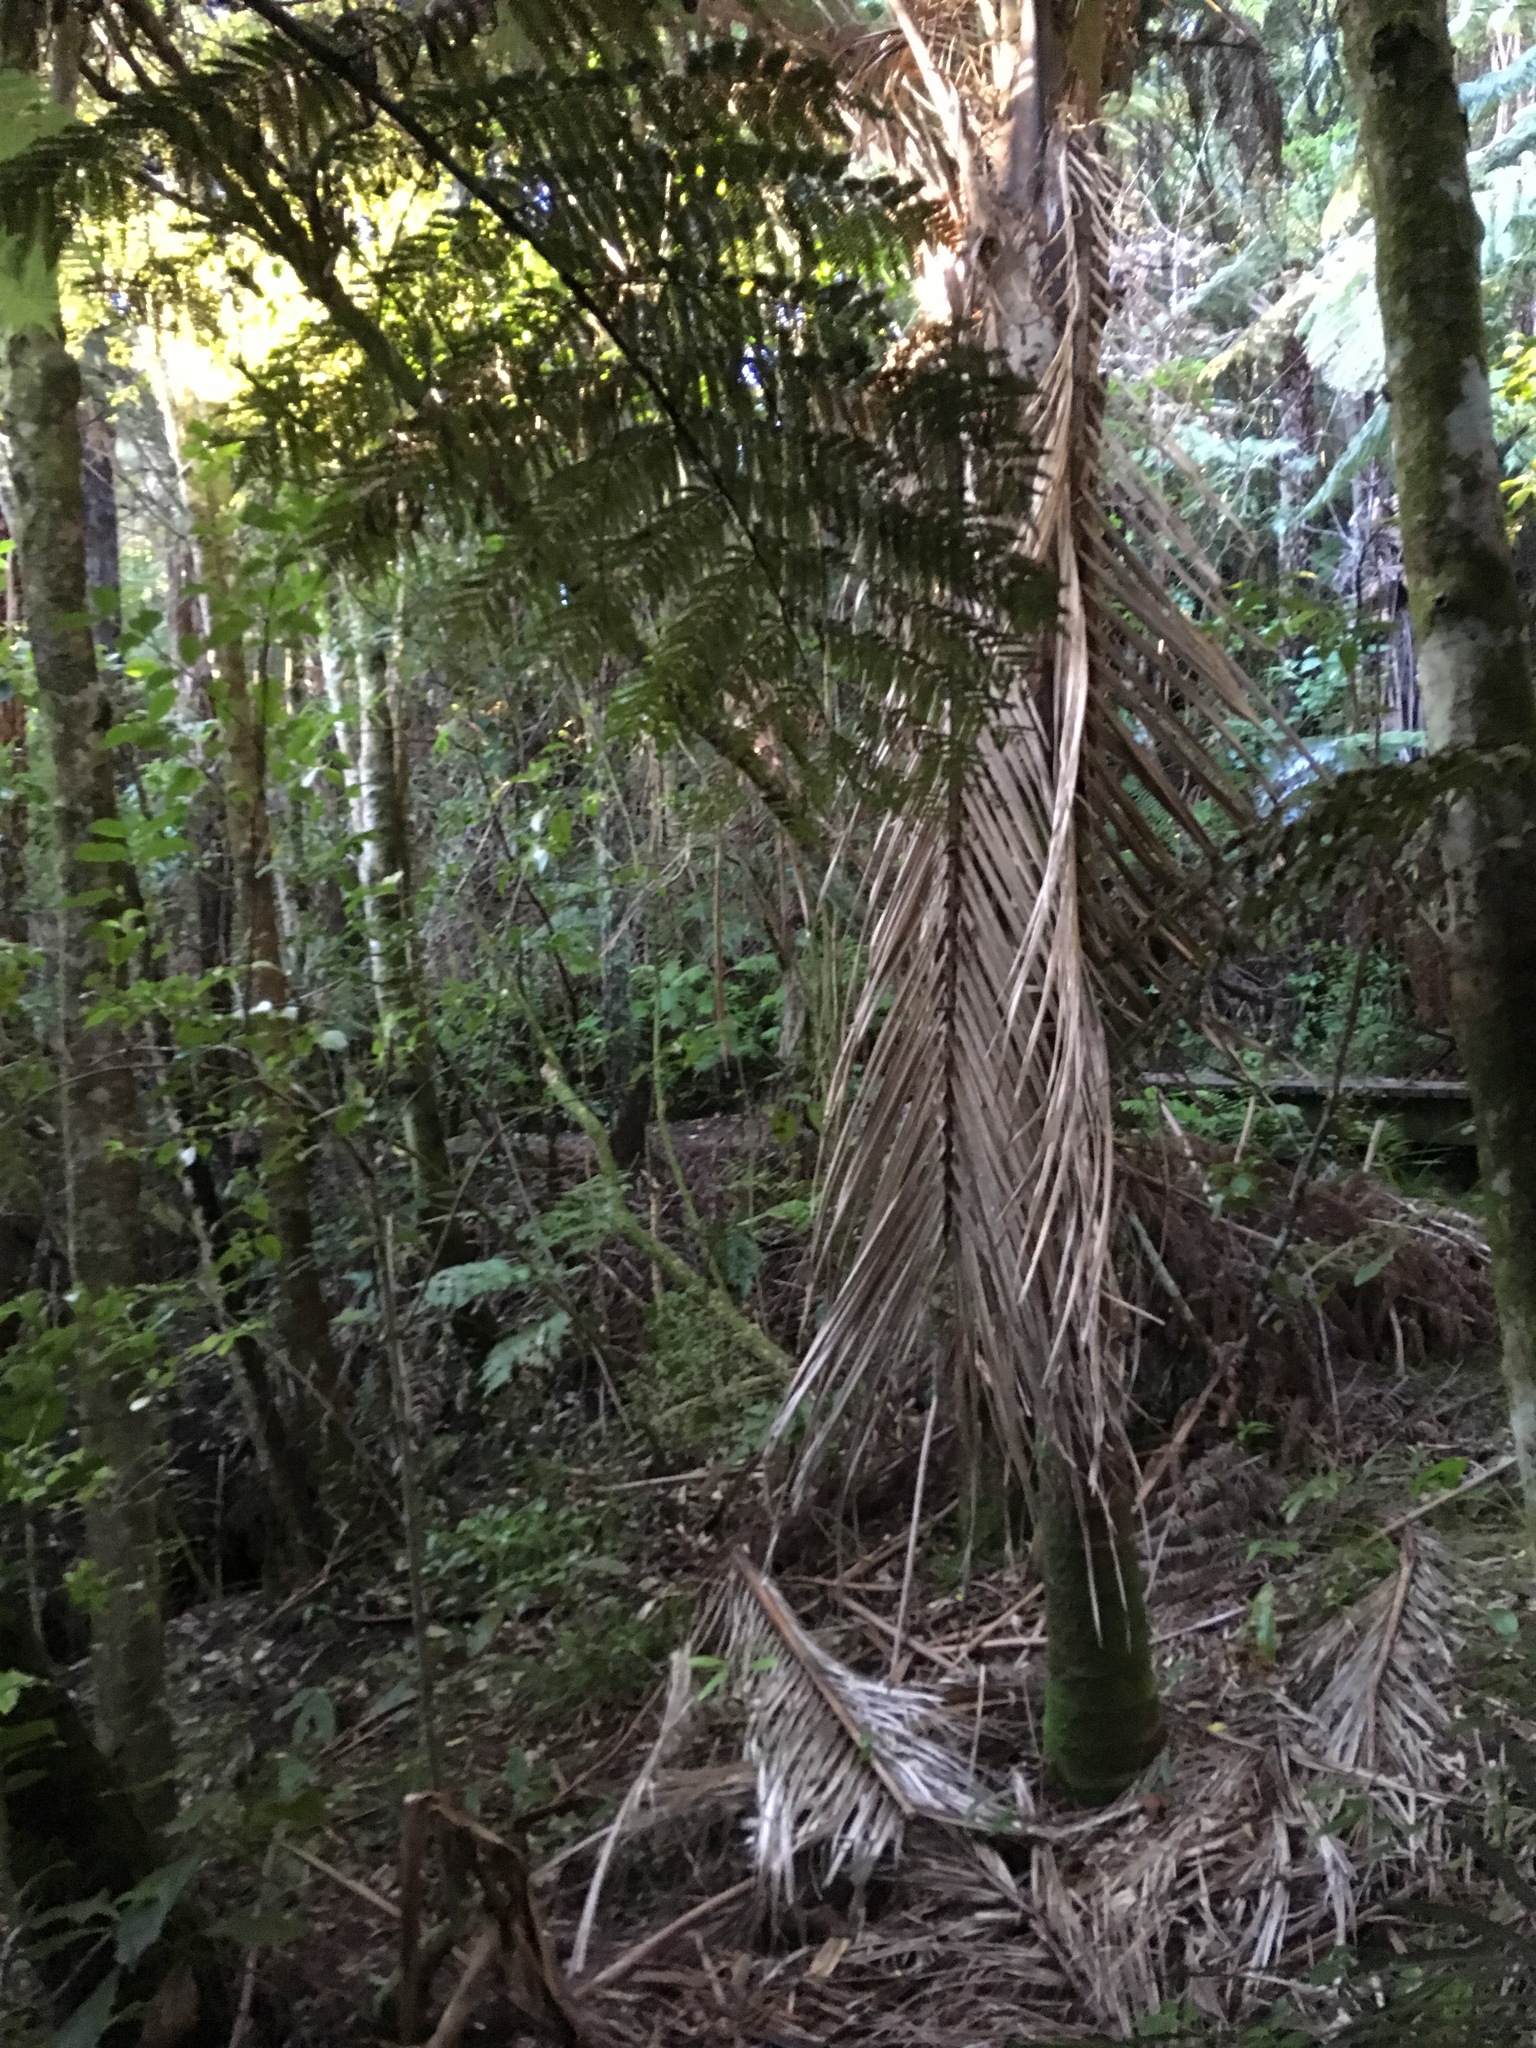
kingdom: Plantae
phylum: Tracheophyta
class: Liliopsida
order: Arecales
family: Arecaceae
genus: Rhopalostylis
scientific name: Rhopalostylis sapida
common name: Feather-duster palm
